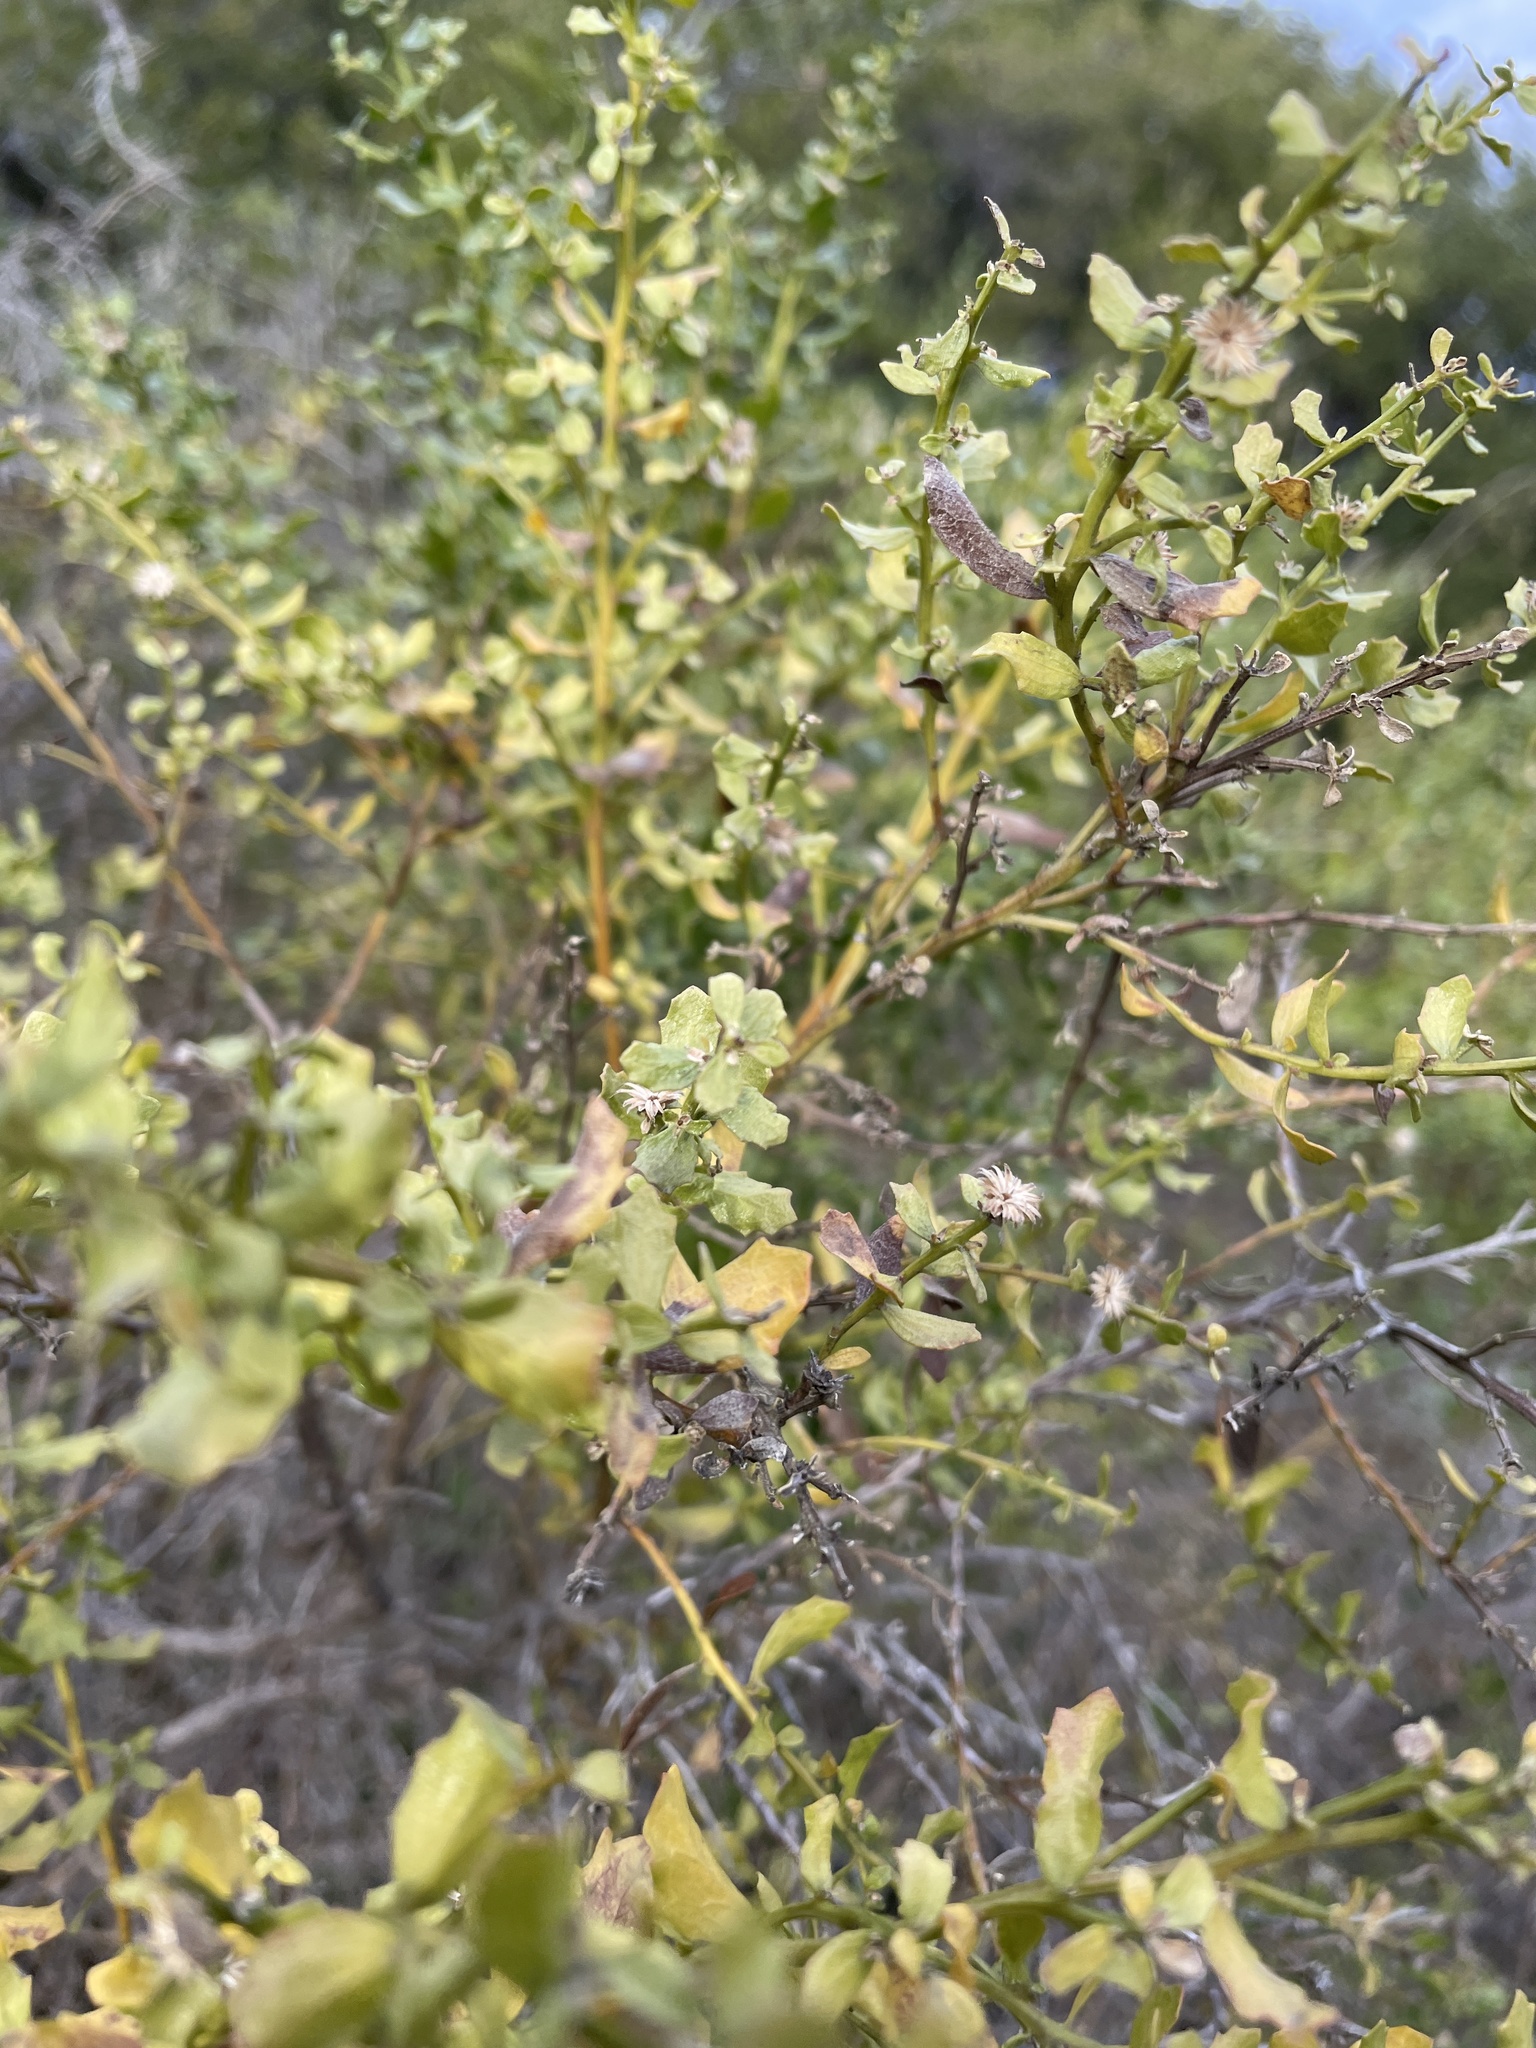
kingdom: Plantae
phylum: Tracheophyta
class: Magnoliopsida
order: Asterales
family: Asteraceae
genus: Baccharis
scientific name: Baccharis pilularis
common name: Coyotebrush
